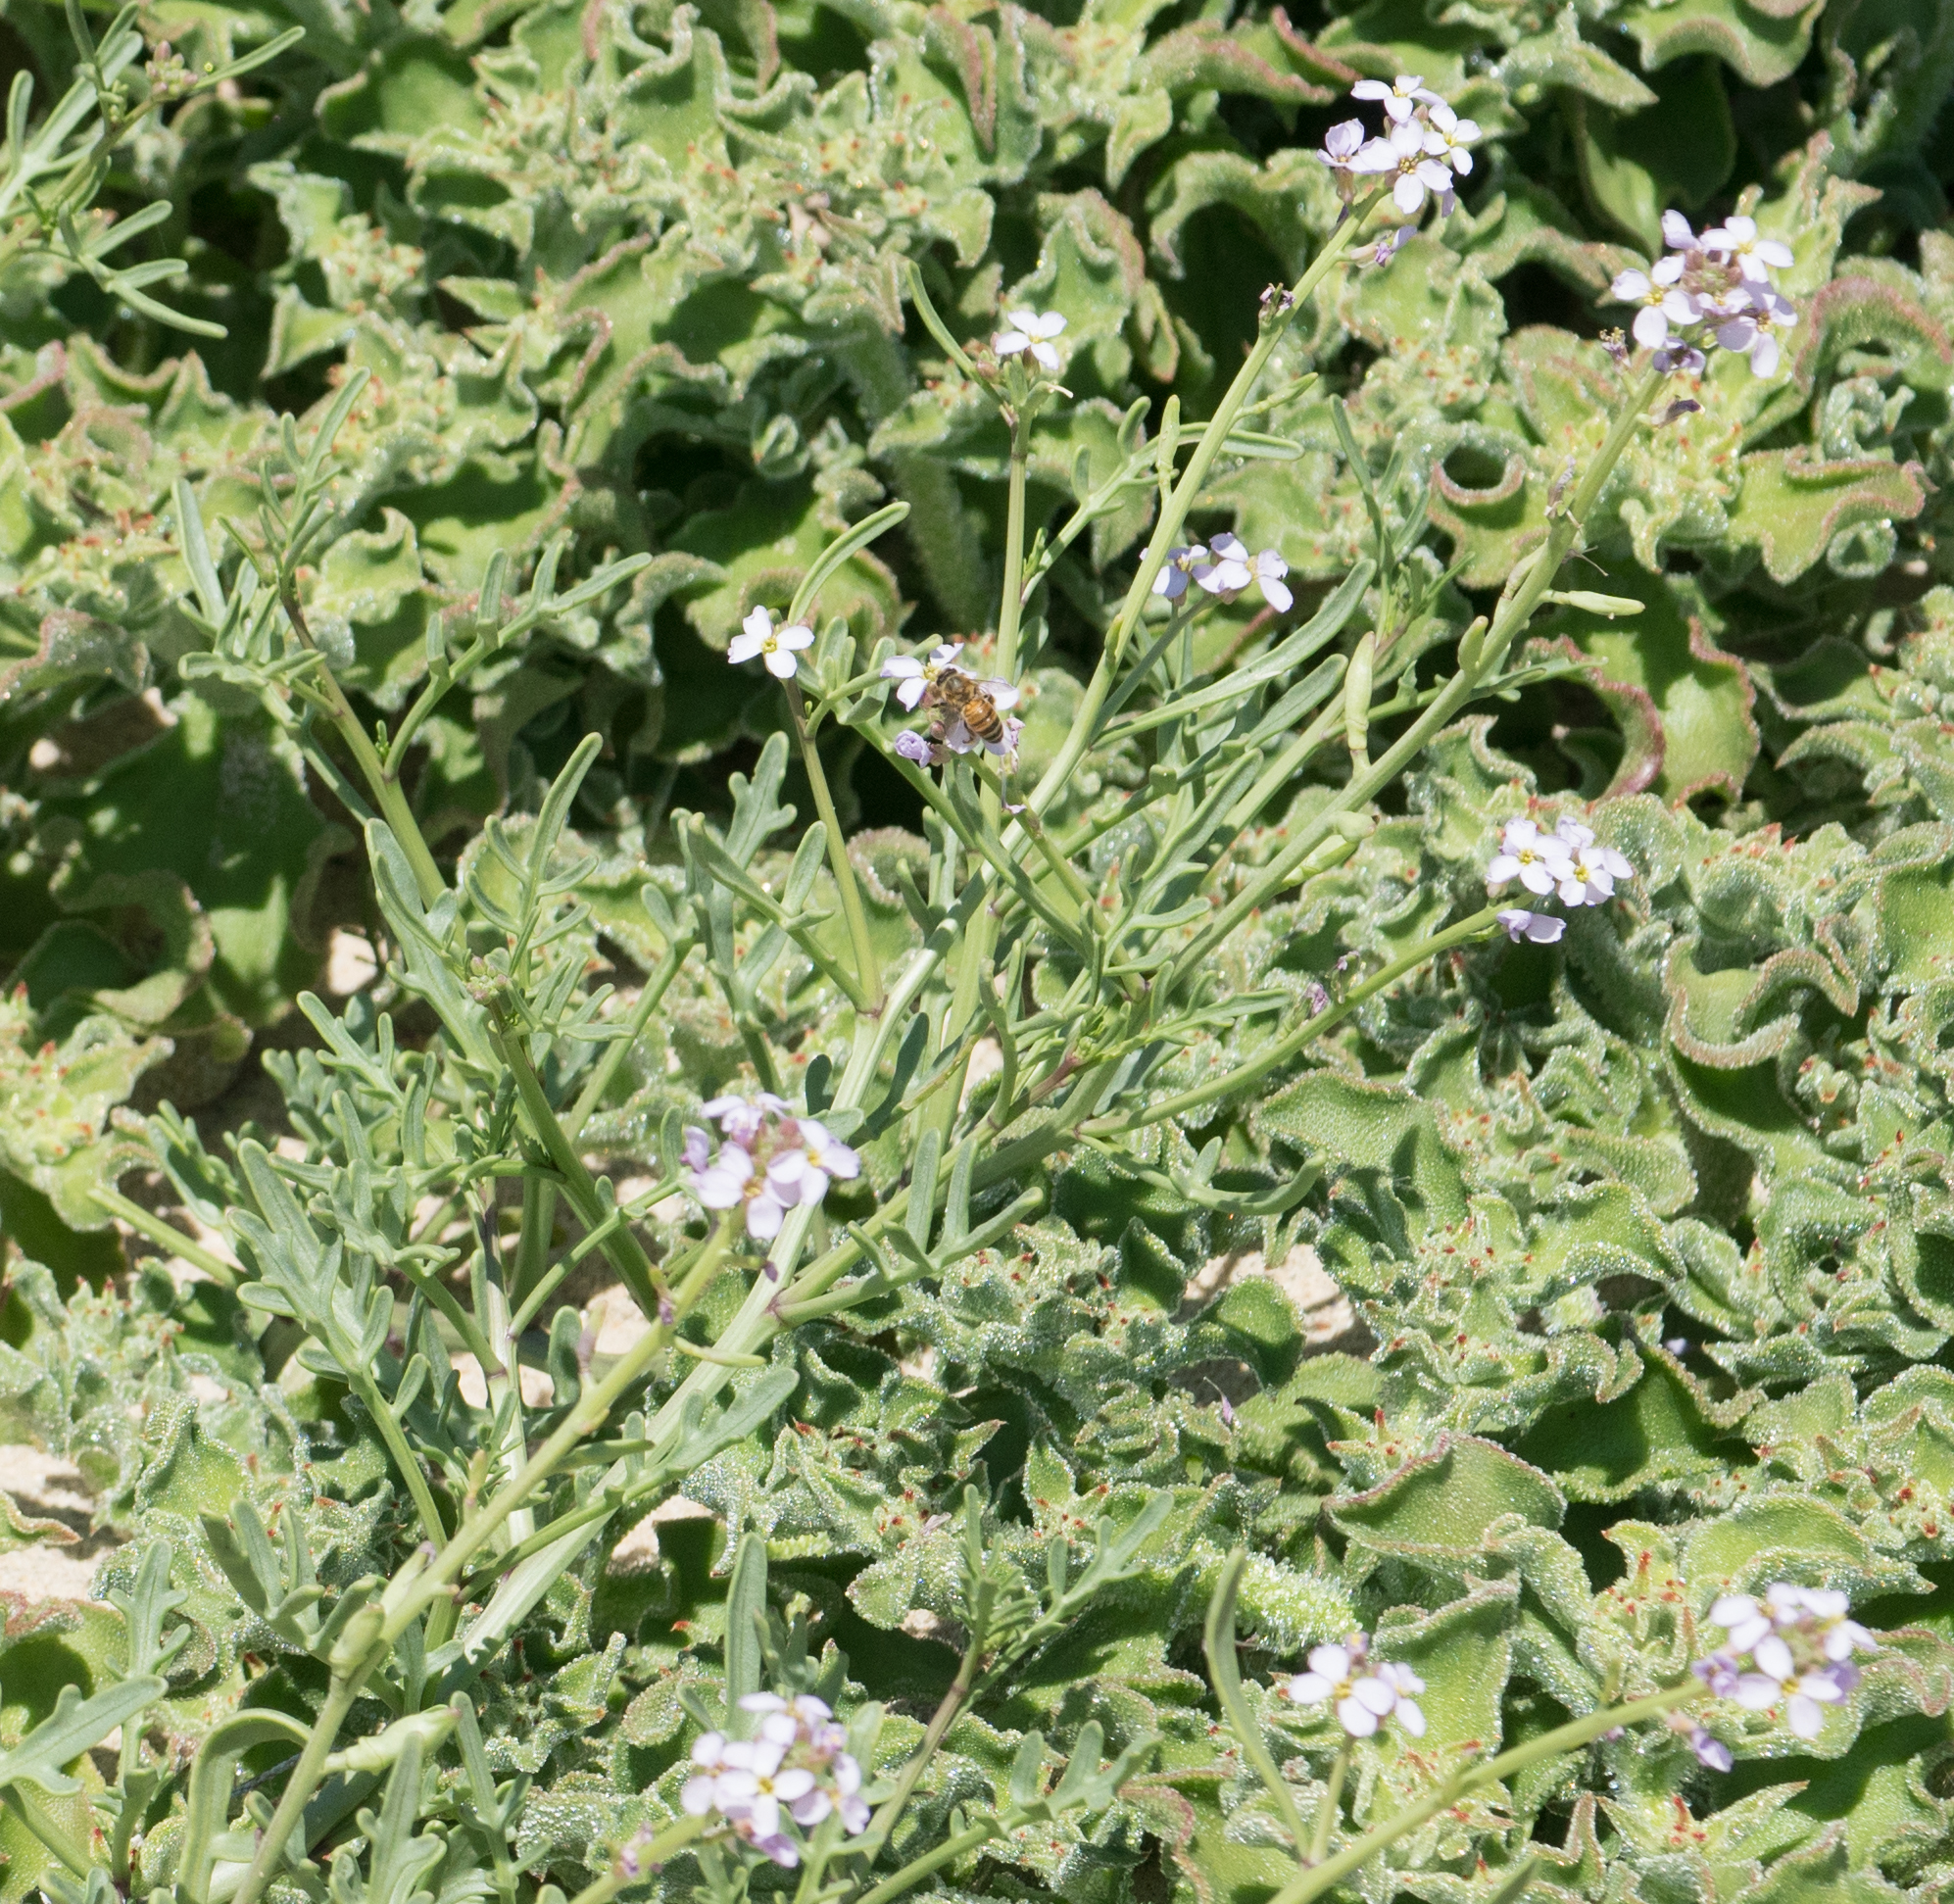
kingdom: Plantae
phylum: Tracheophyta
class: Magnoliopsida
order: Brassicales
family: Brassicaceae
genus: Cakile
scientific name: Cakile maritima
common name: Sea rocket
